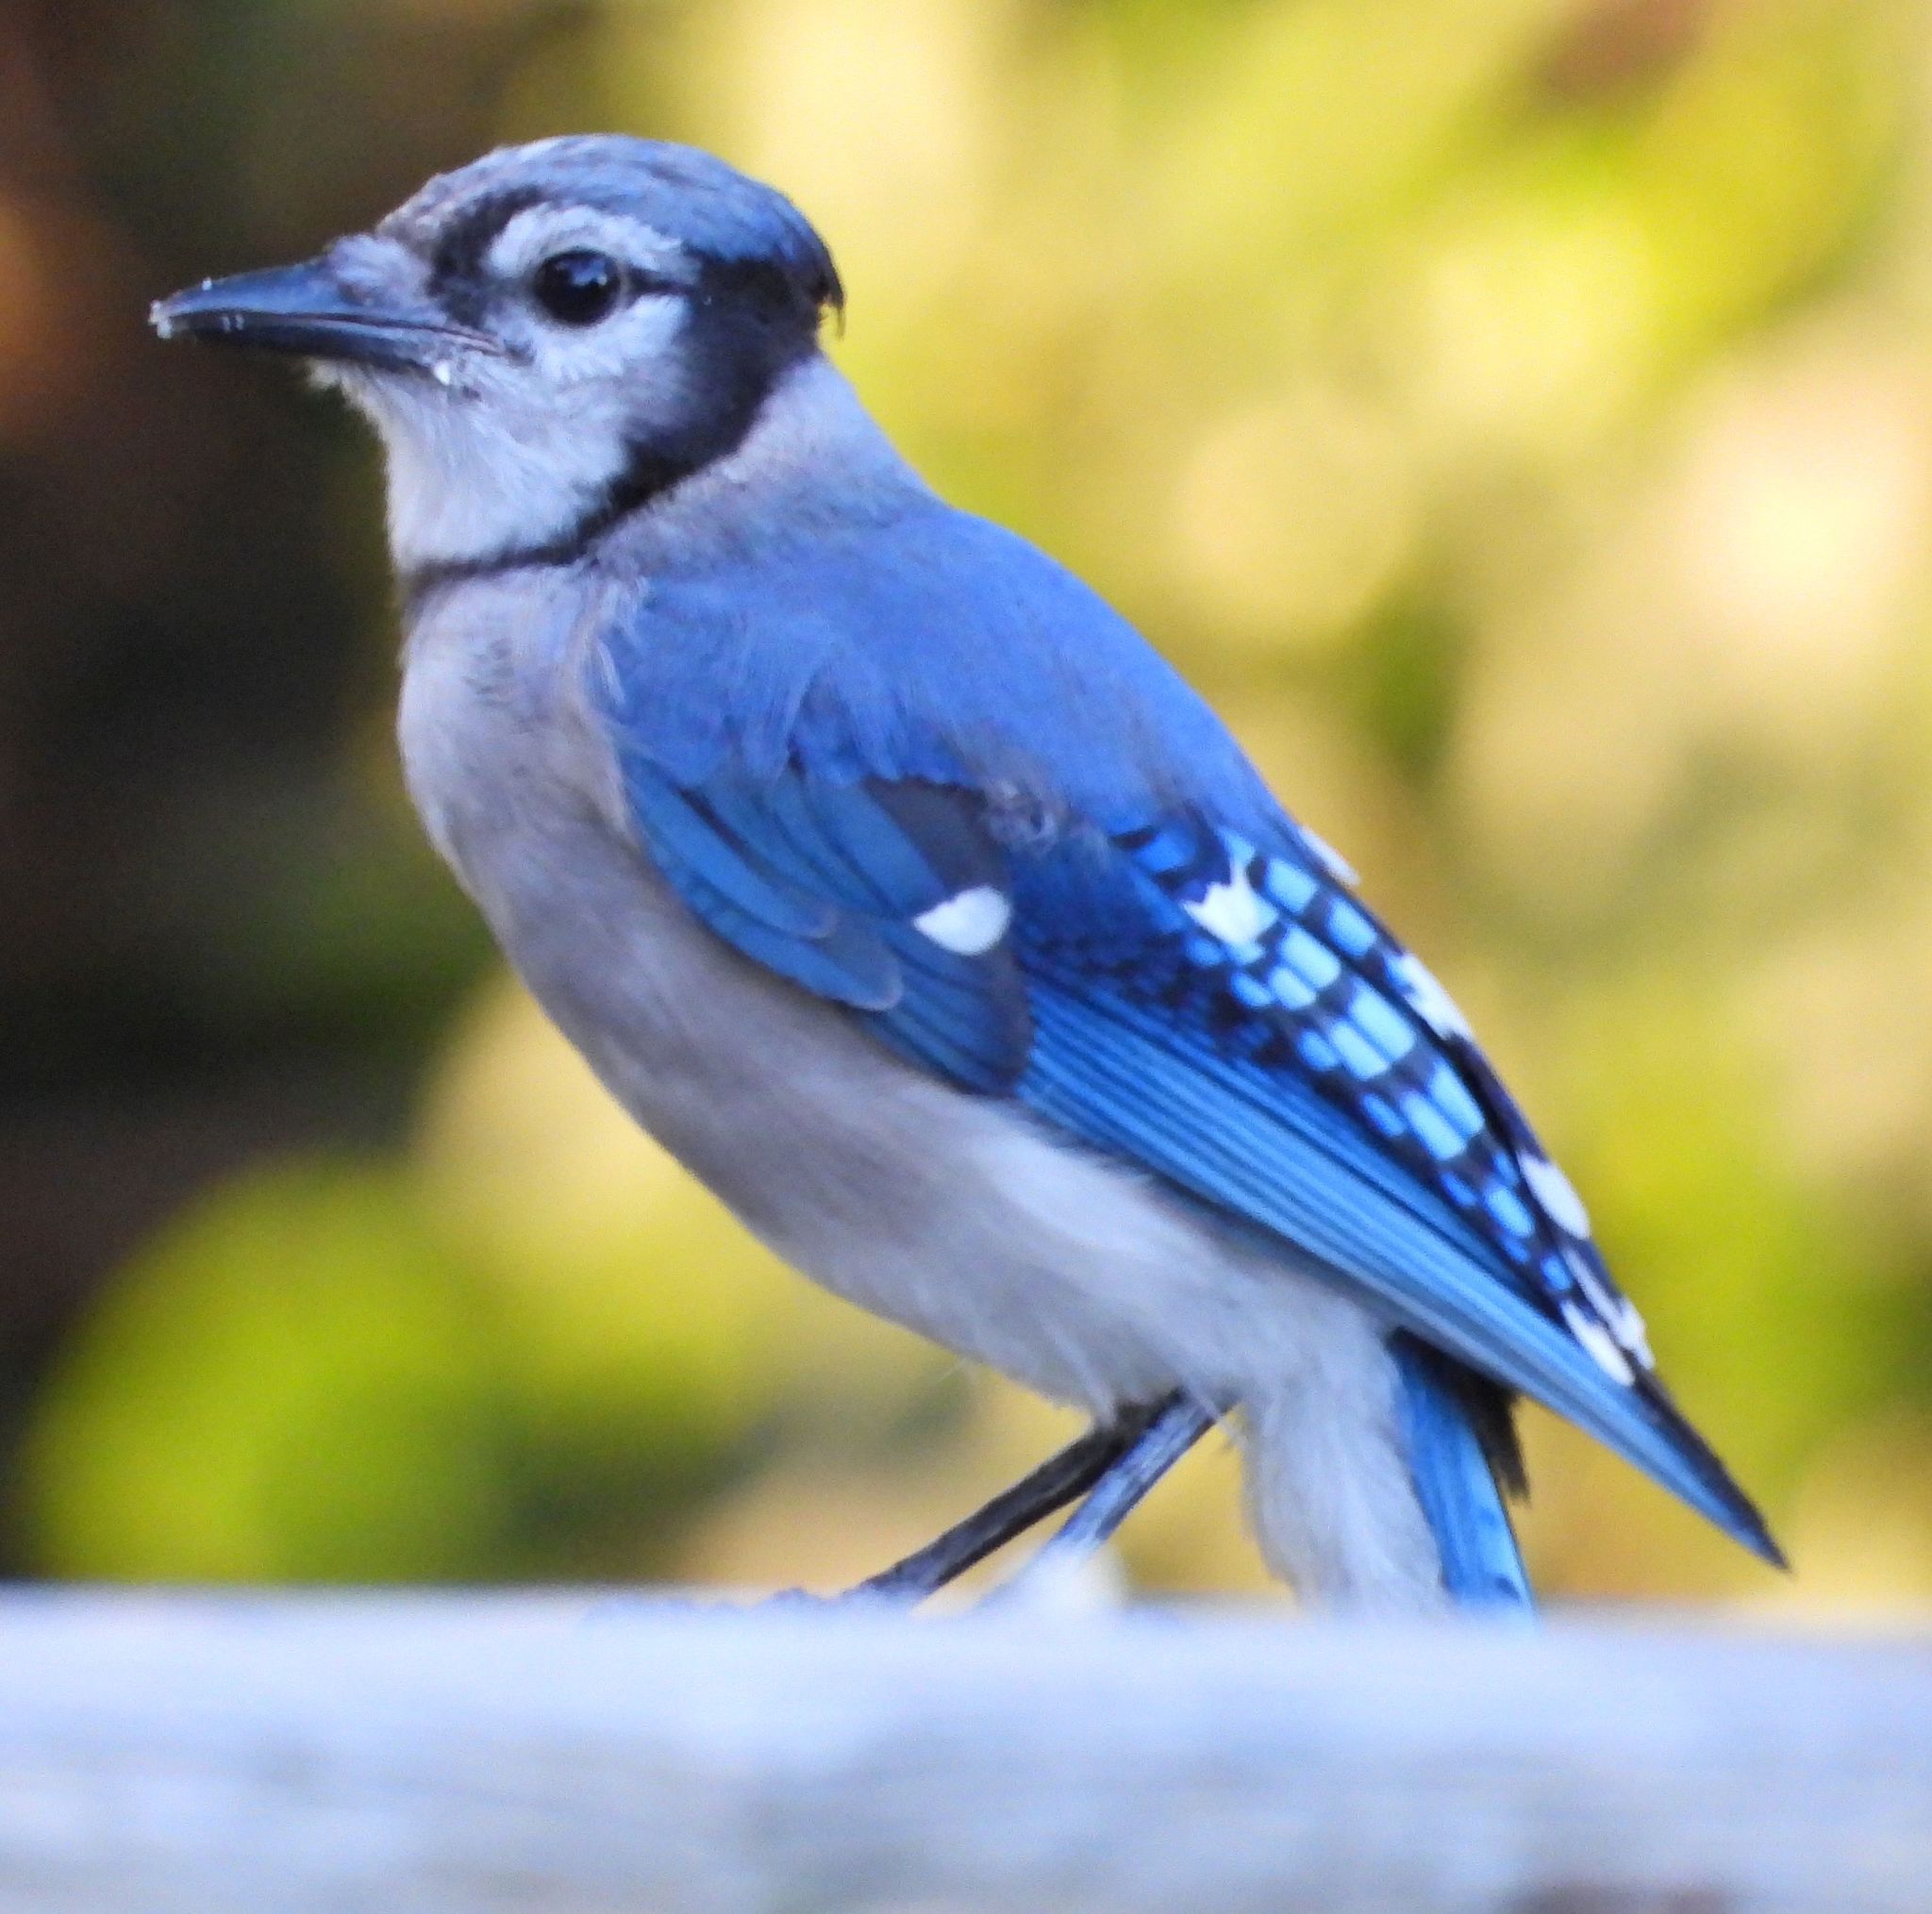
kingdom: Animalia
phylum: Chordata
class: Aves
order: Passeriformes
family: Corvidae
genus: Cyanocitta
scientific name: Cyanocitta cristata
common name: Blue jay
